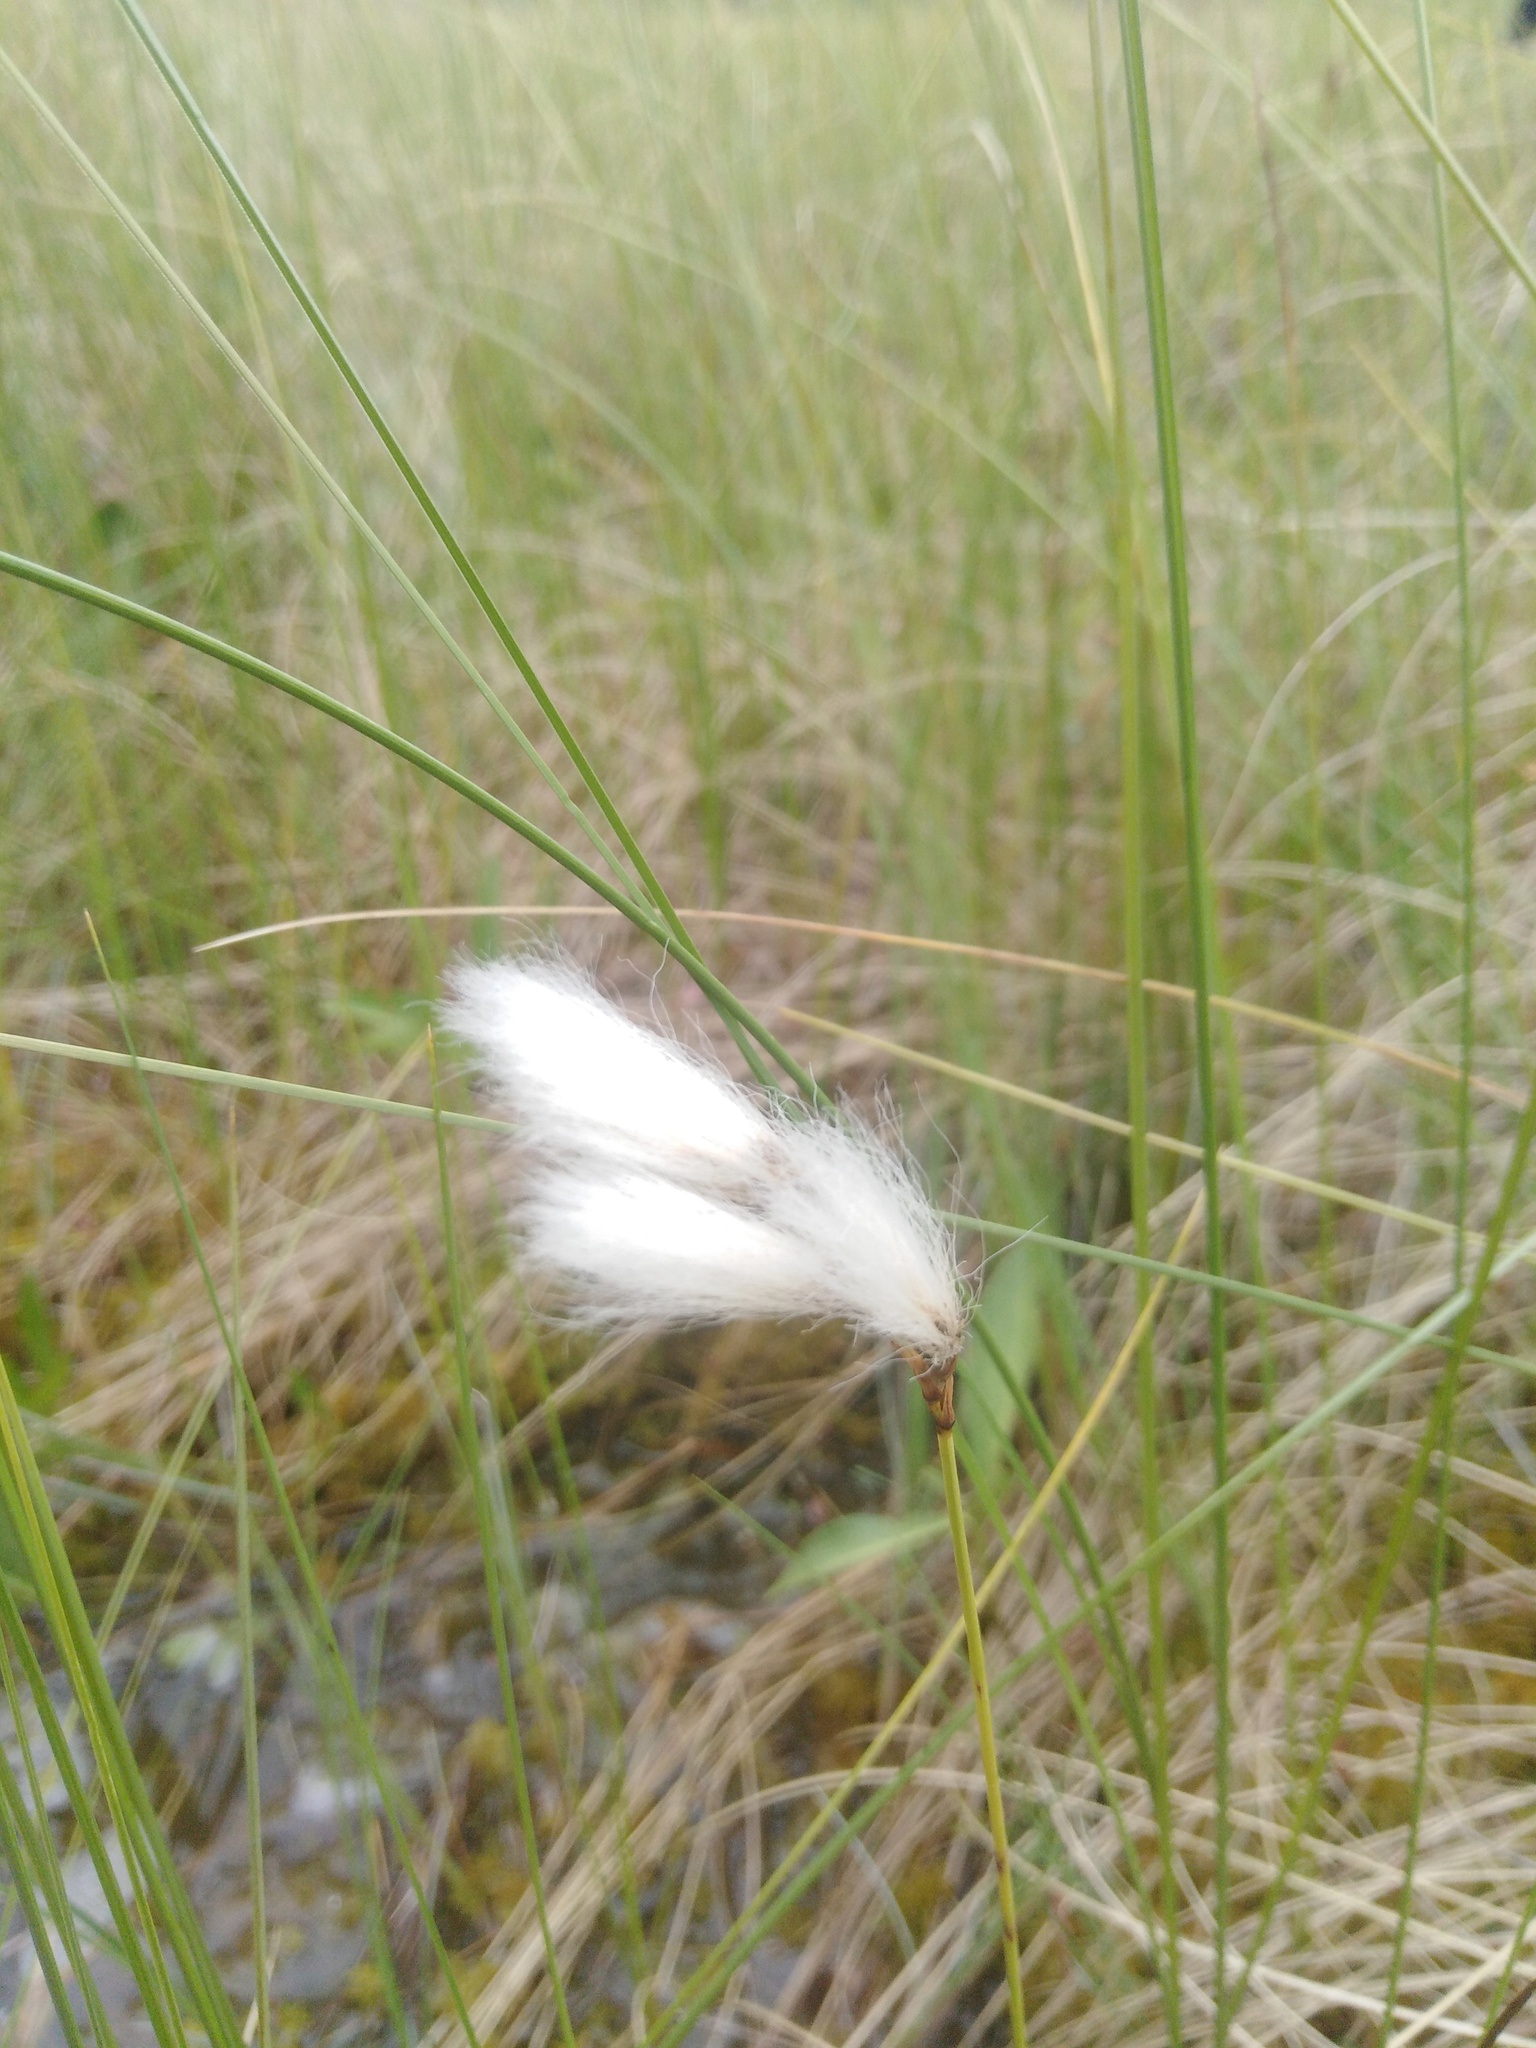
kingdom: Plantae
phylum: Tracheophyta
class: Liliopsida
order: Poales
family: Cyperaceae
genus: Eriophorum
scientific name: Eriophorum gracile
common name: Slender cottongrass
